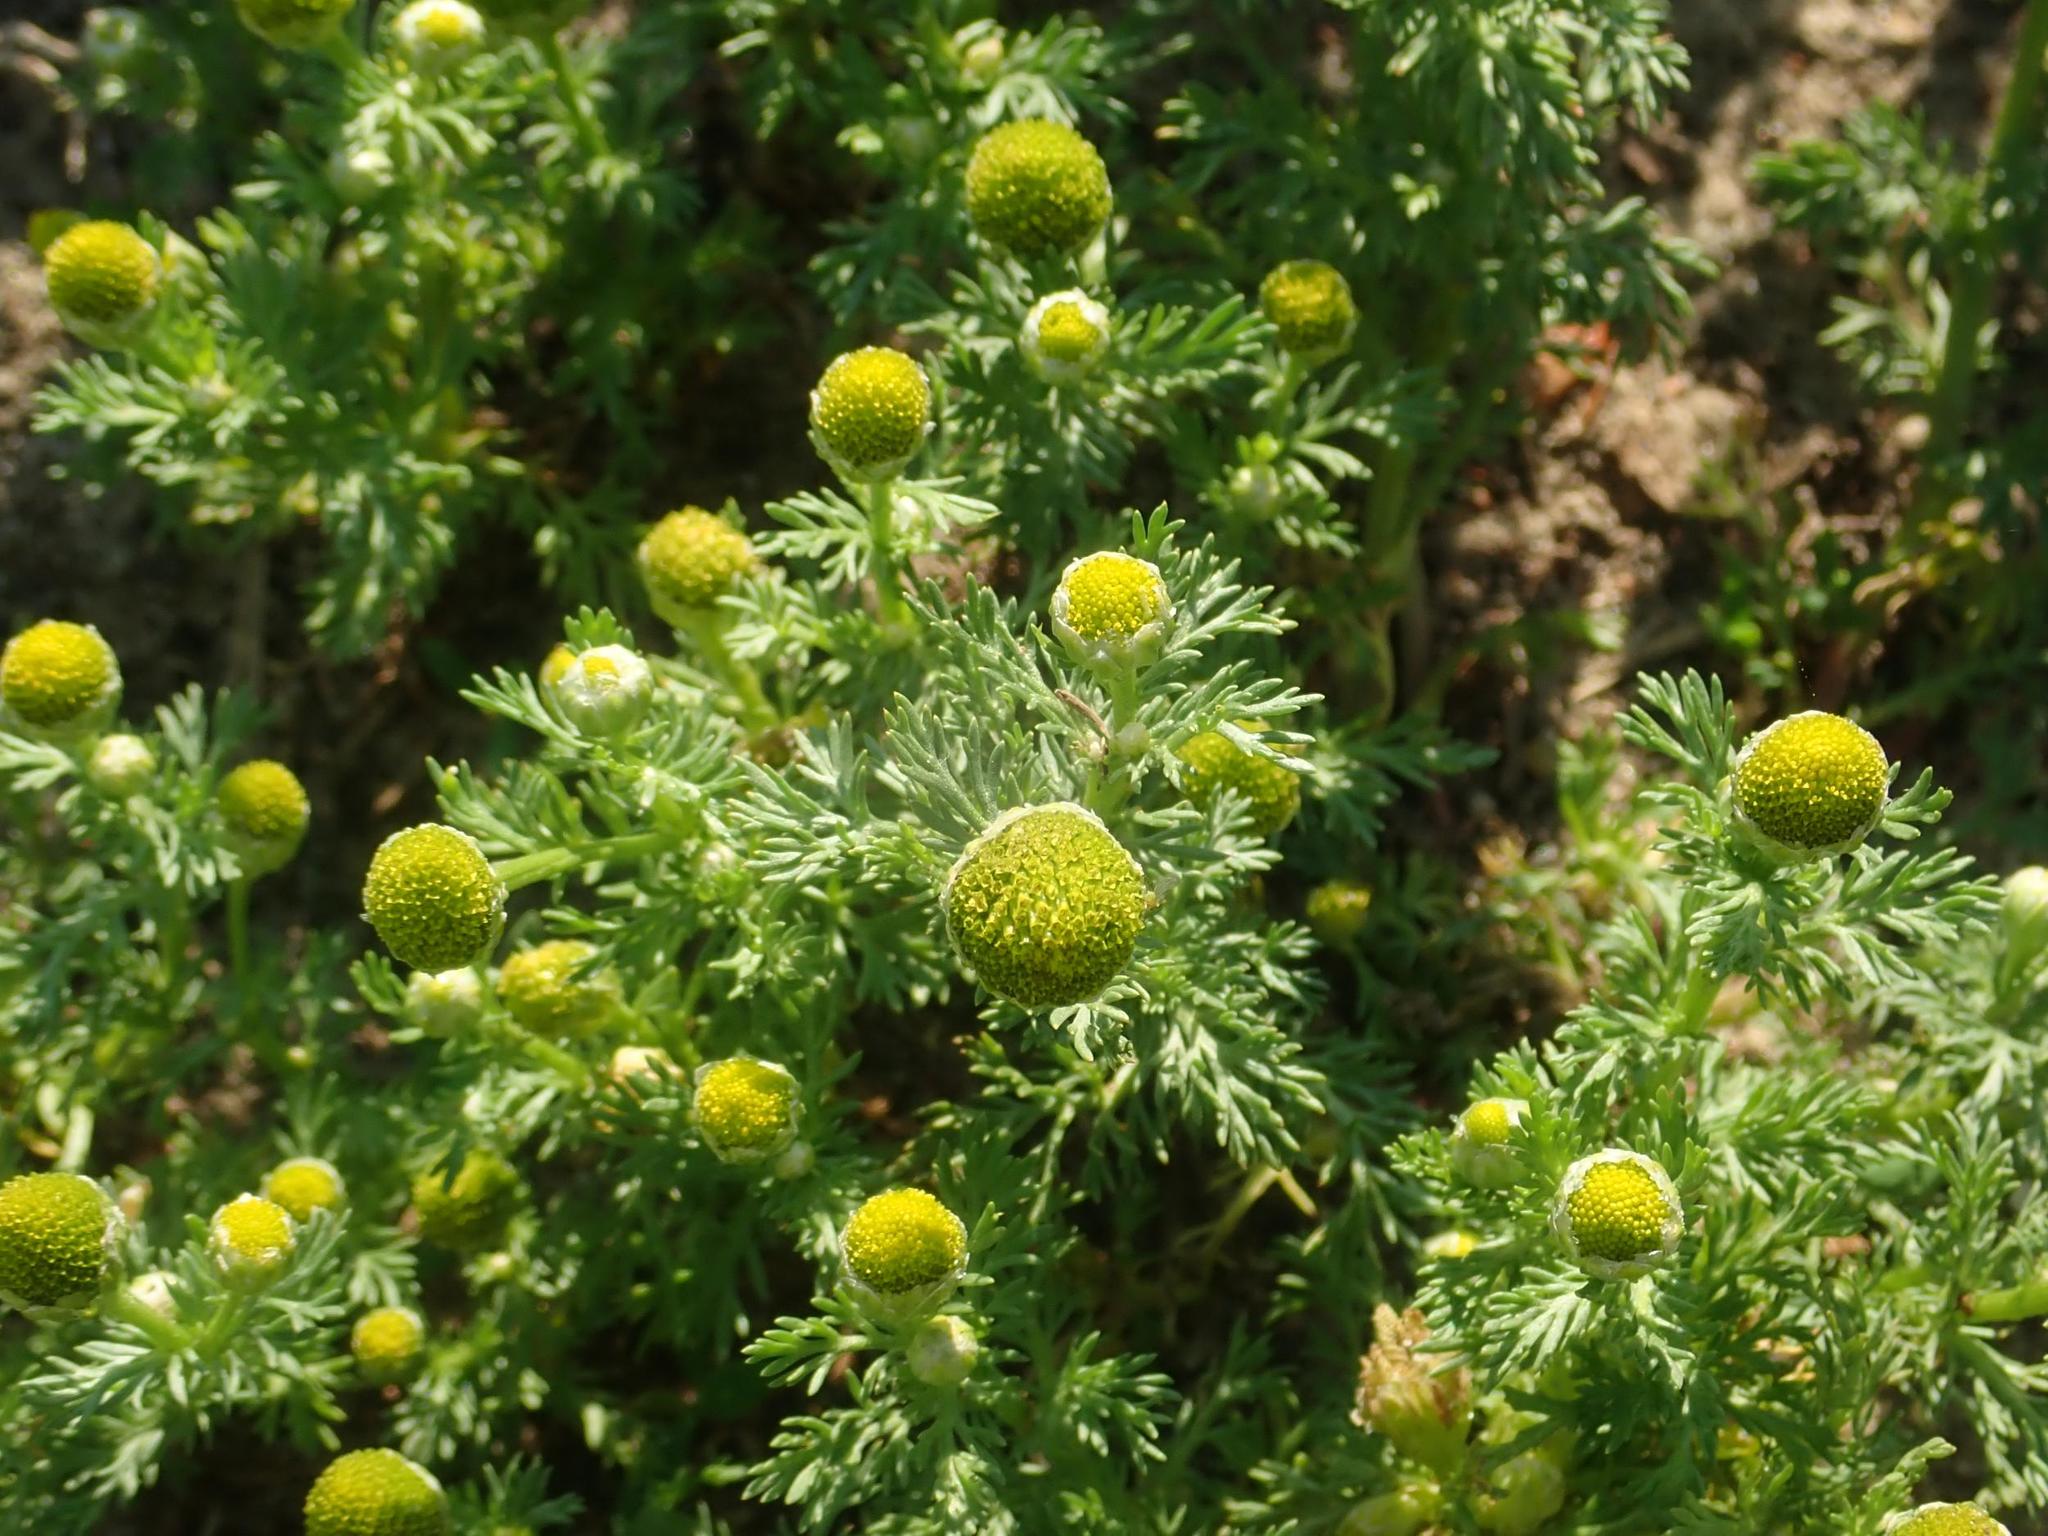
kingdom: Plantae
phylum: Tracheophyta
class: Magnoliopsida
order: Asterales
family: Asteraceae
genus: Matricaria
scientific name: Matricaria discoidea
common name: Disc mayweed
